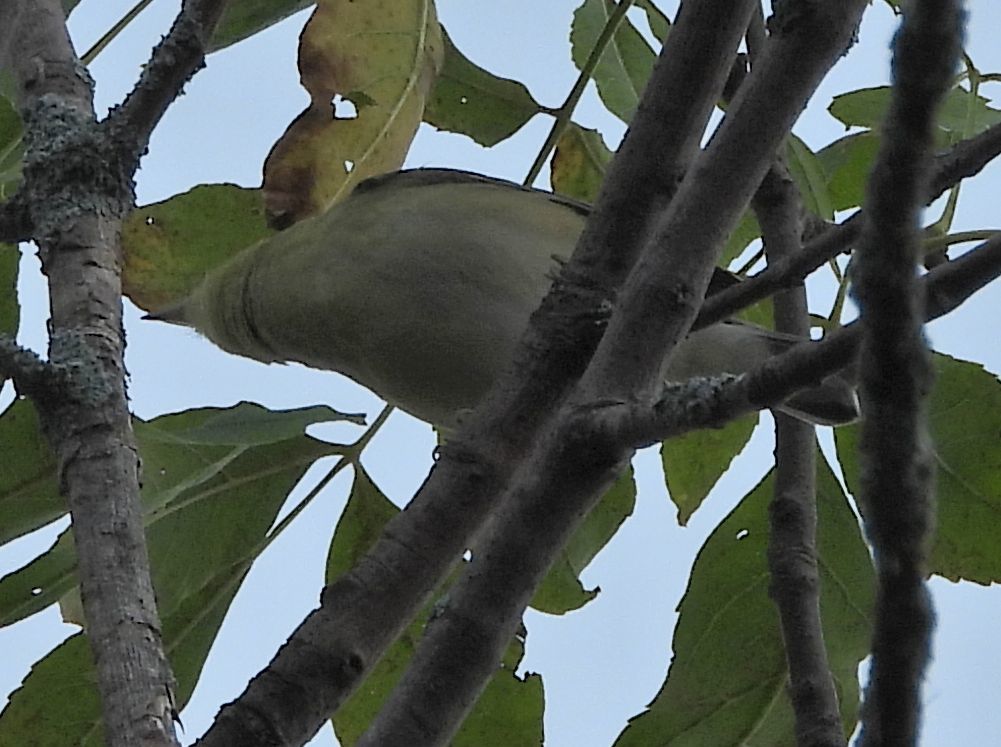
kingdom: Animalia
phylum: Chordata
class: Aves
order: Passeriformes
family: Parulidae
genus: Setophaga
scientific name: Setophaga castanea
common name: Bay-breasted warbler
